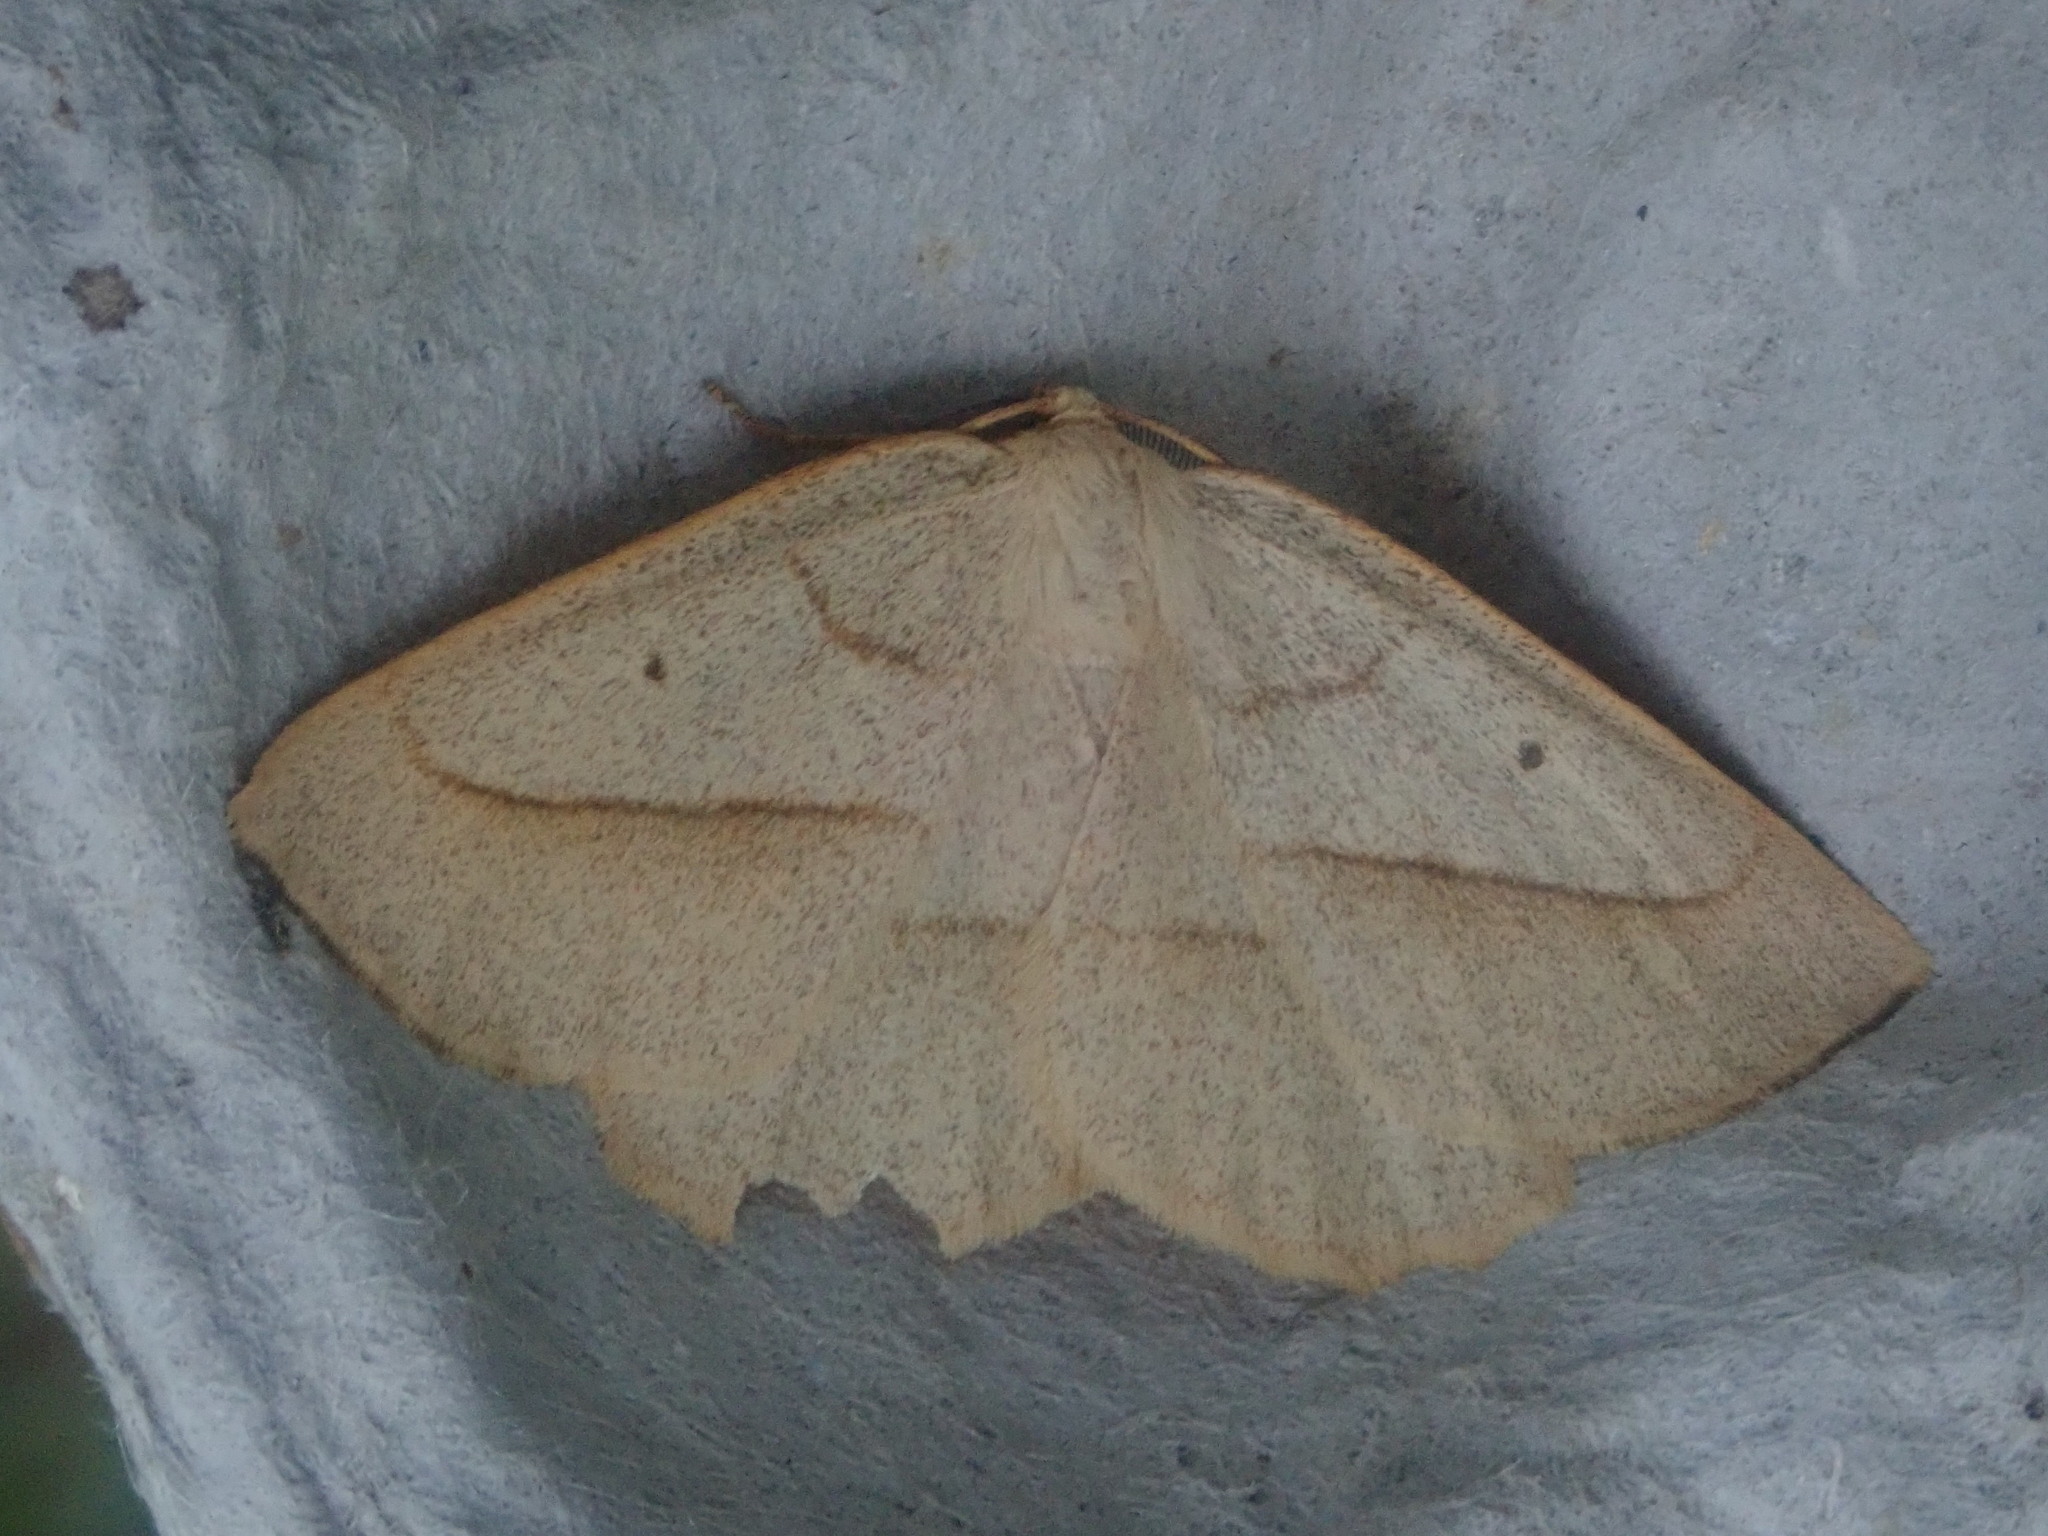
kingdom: Animalia
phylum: Arthropoda
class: Insecta
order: Lepidoptera
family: Geometridae
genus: Euchlaena
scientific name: Euchlaena irraria
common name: Least-marked euchlaena
